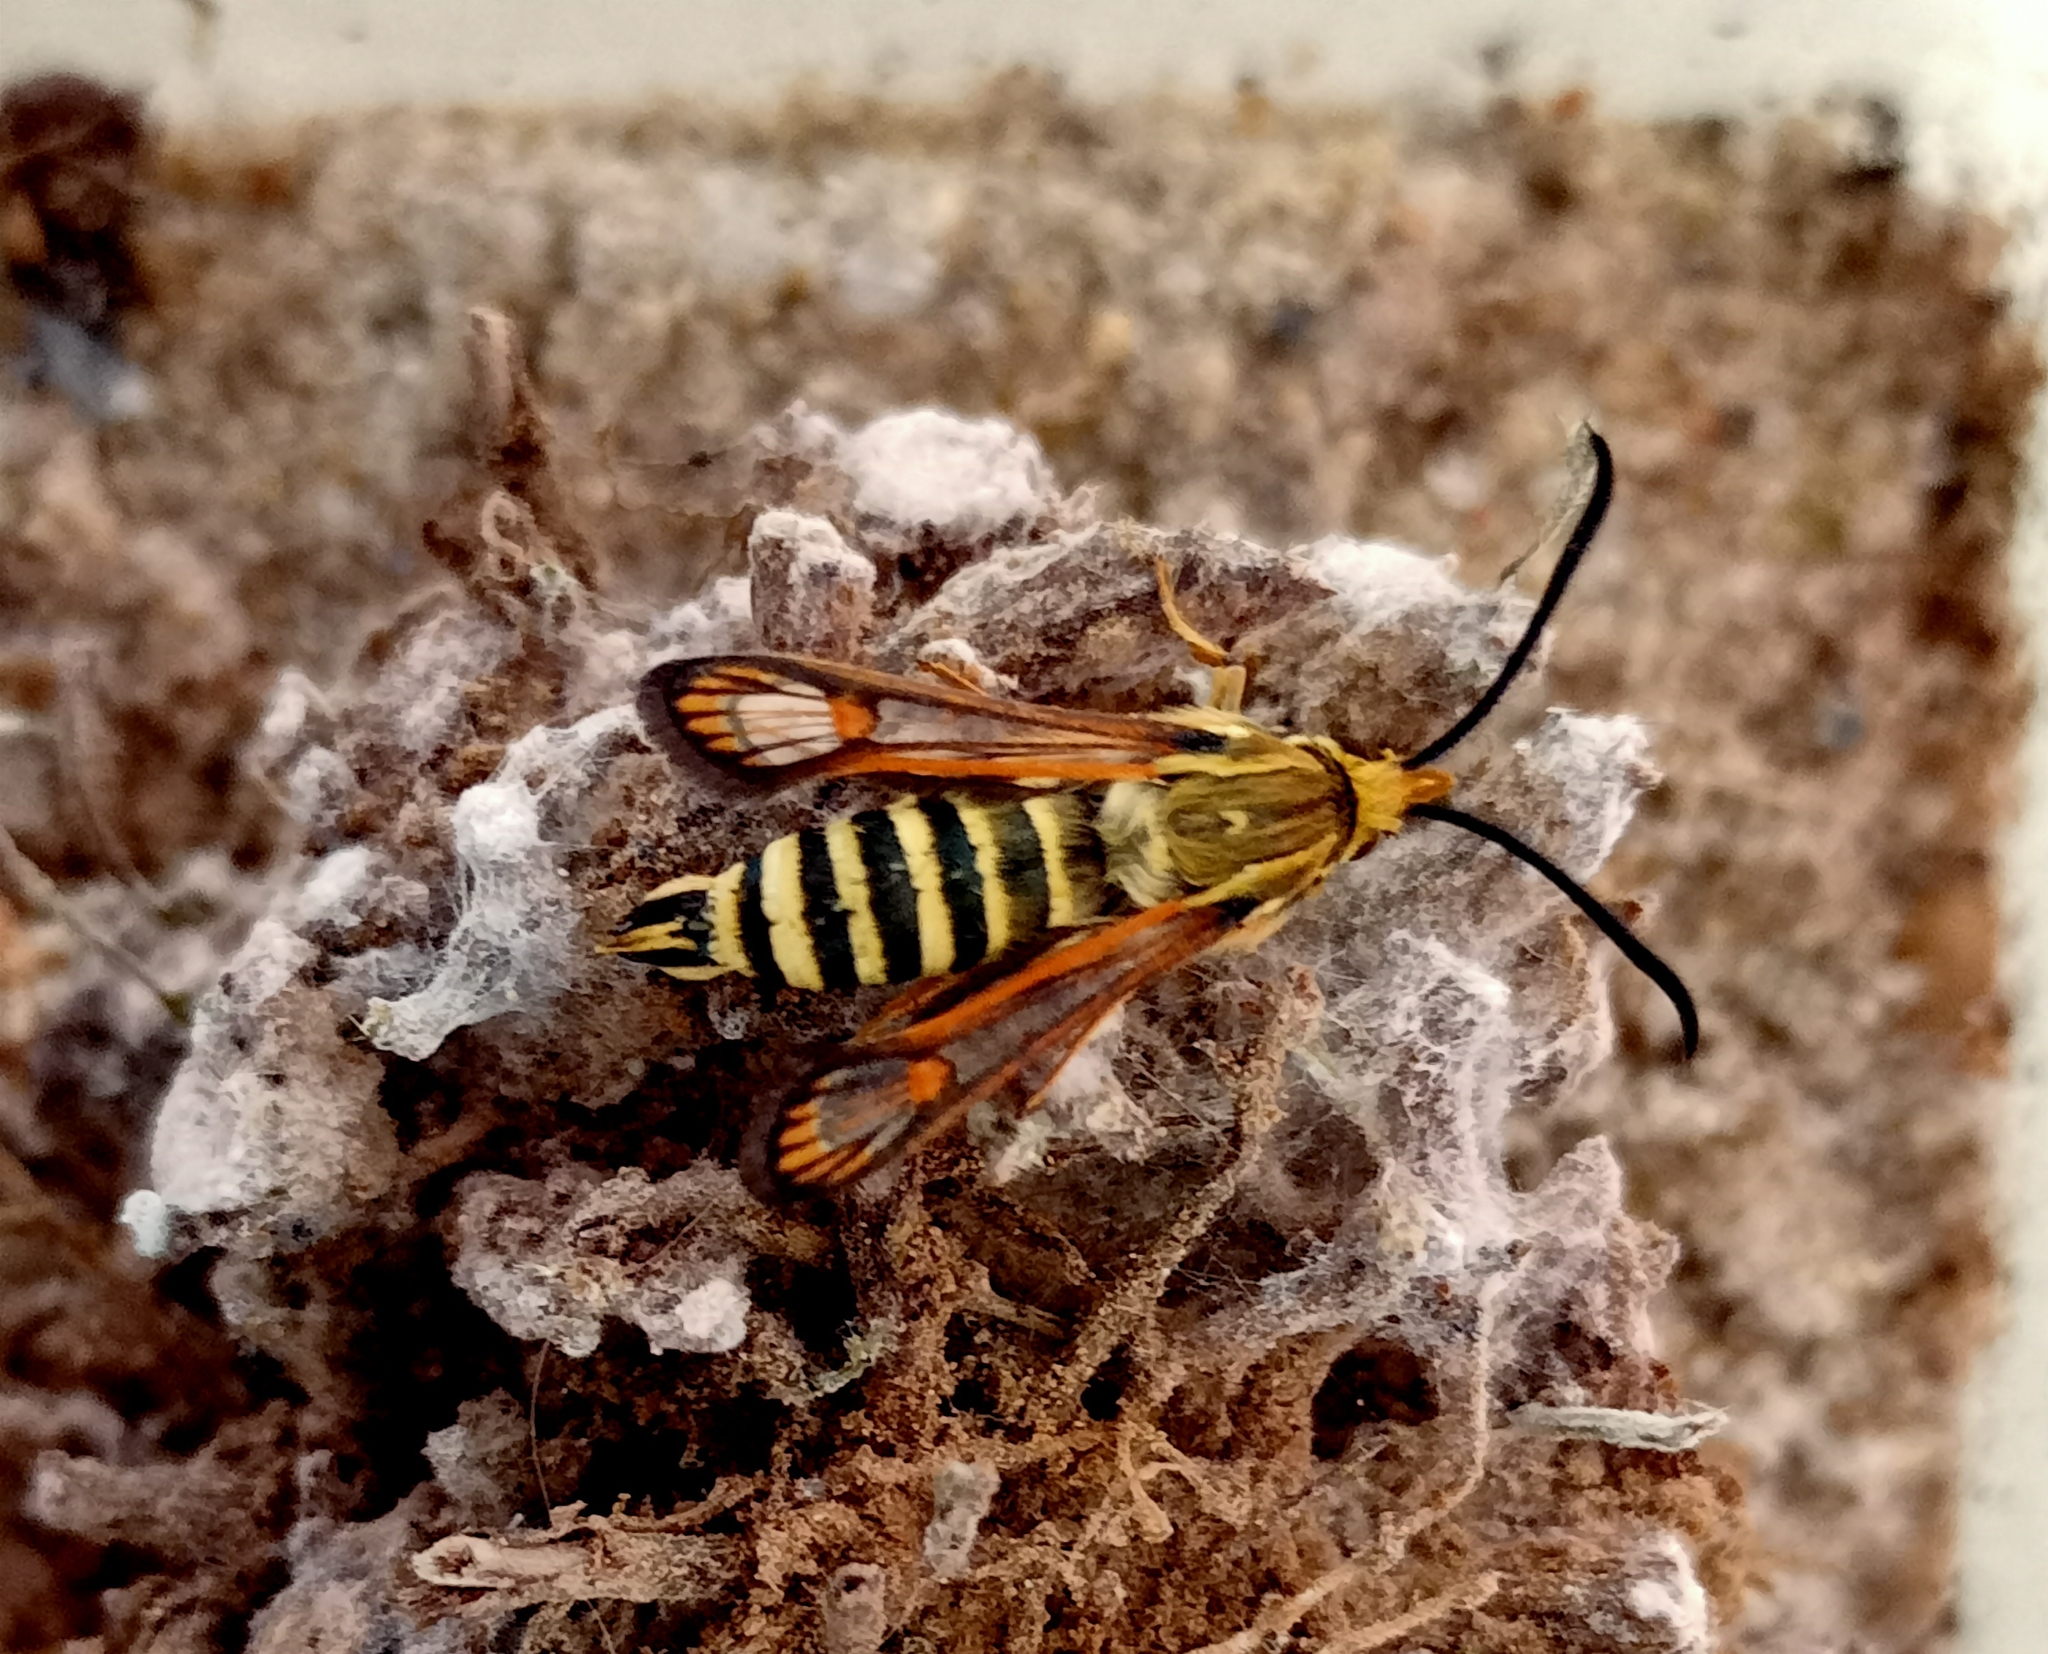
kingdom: Animalia
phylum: Arthropoda
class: Insecta
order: Lepidoptera
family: Sesiidae
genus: Bembecia
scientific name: Bembecia ichneumoniformis
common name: Six-belted clearwing
